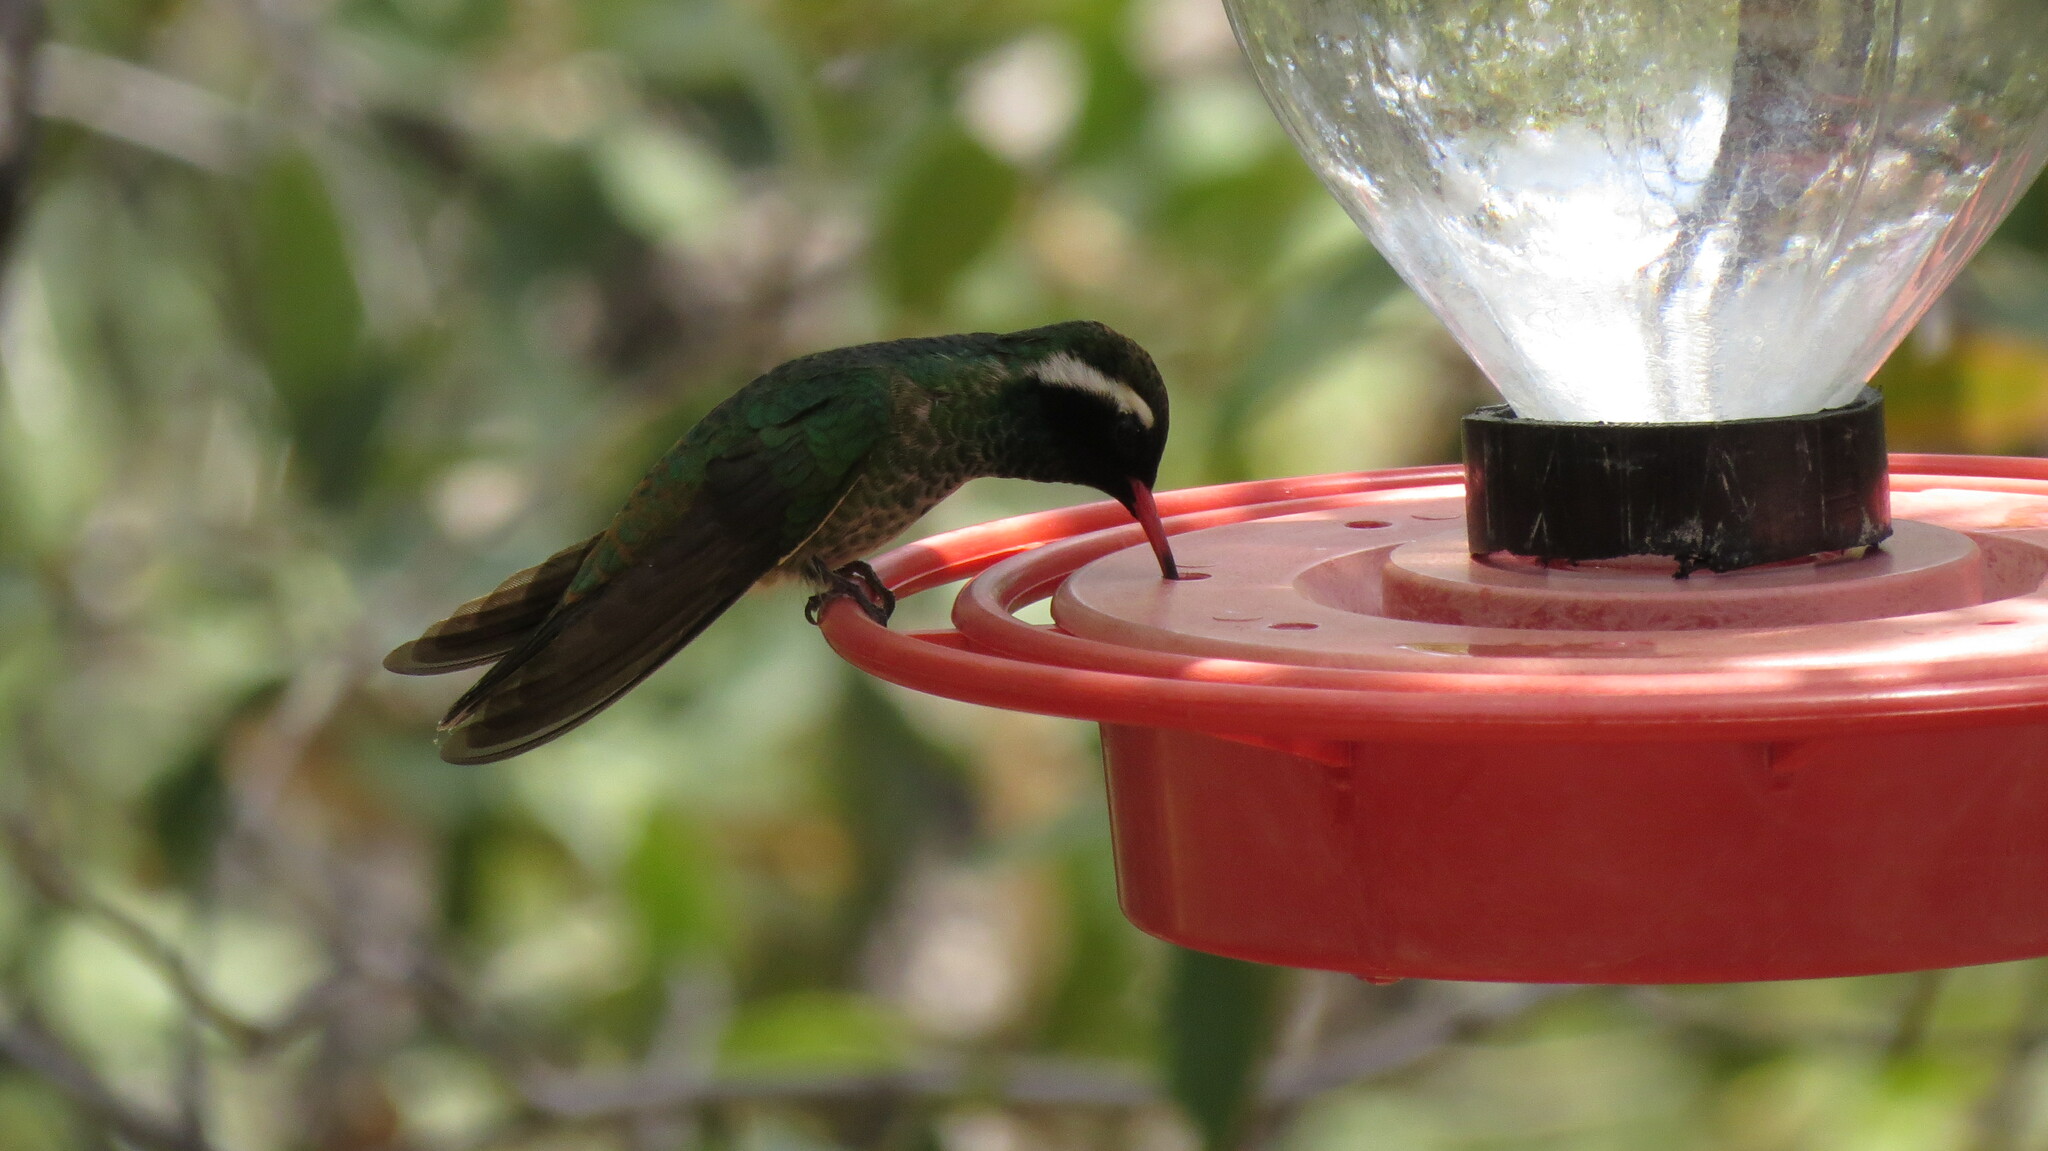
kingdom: Animalia
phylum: Chordata
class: Aves
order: Apodiformes
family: Trochilidae
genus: Basilinna
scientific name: Basilinna leucotis
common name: White-eared hummingbird
